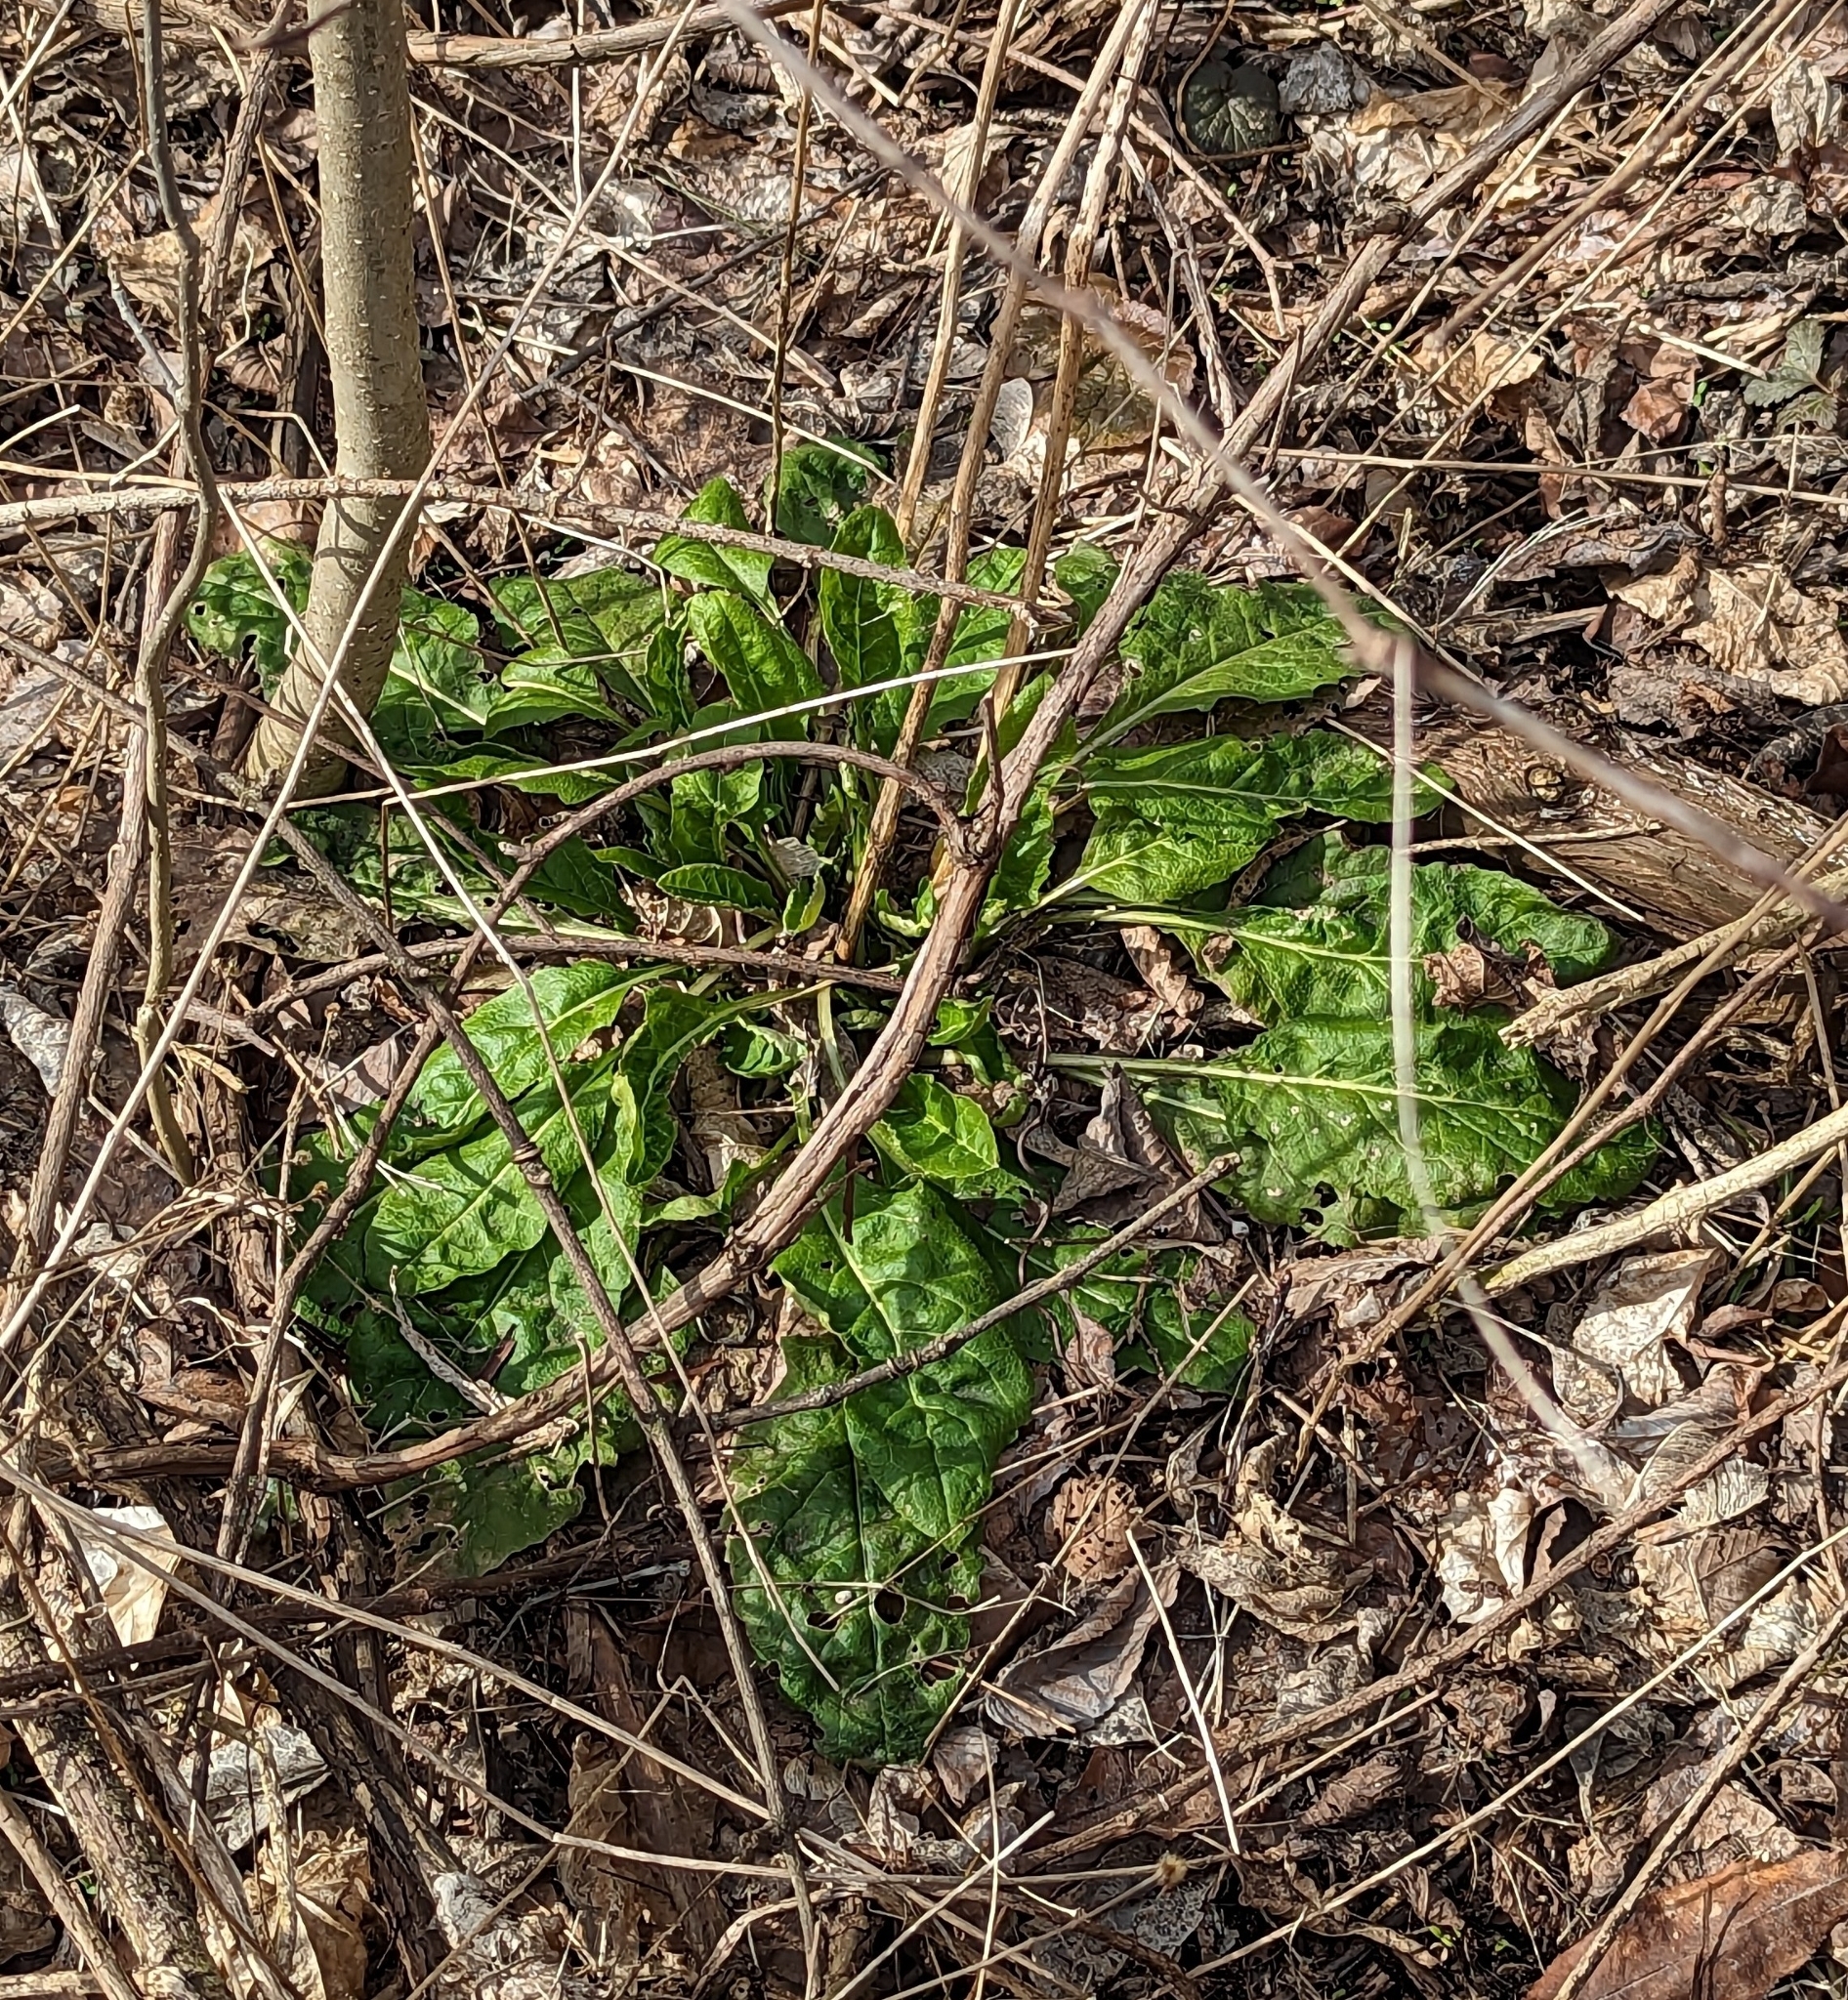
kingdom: Plantae
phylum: Tracheophyta
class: Magnoliopsida
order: Brassicales
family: Brassicaceae
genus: Hesperis
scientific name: Hesperis matronalis
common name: Dame's-violet
